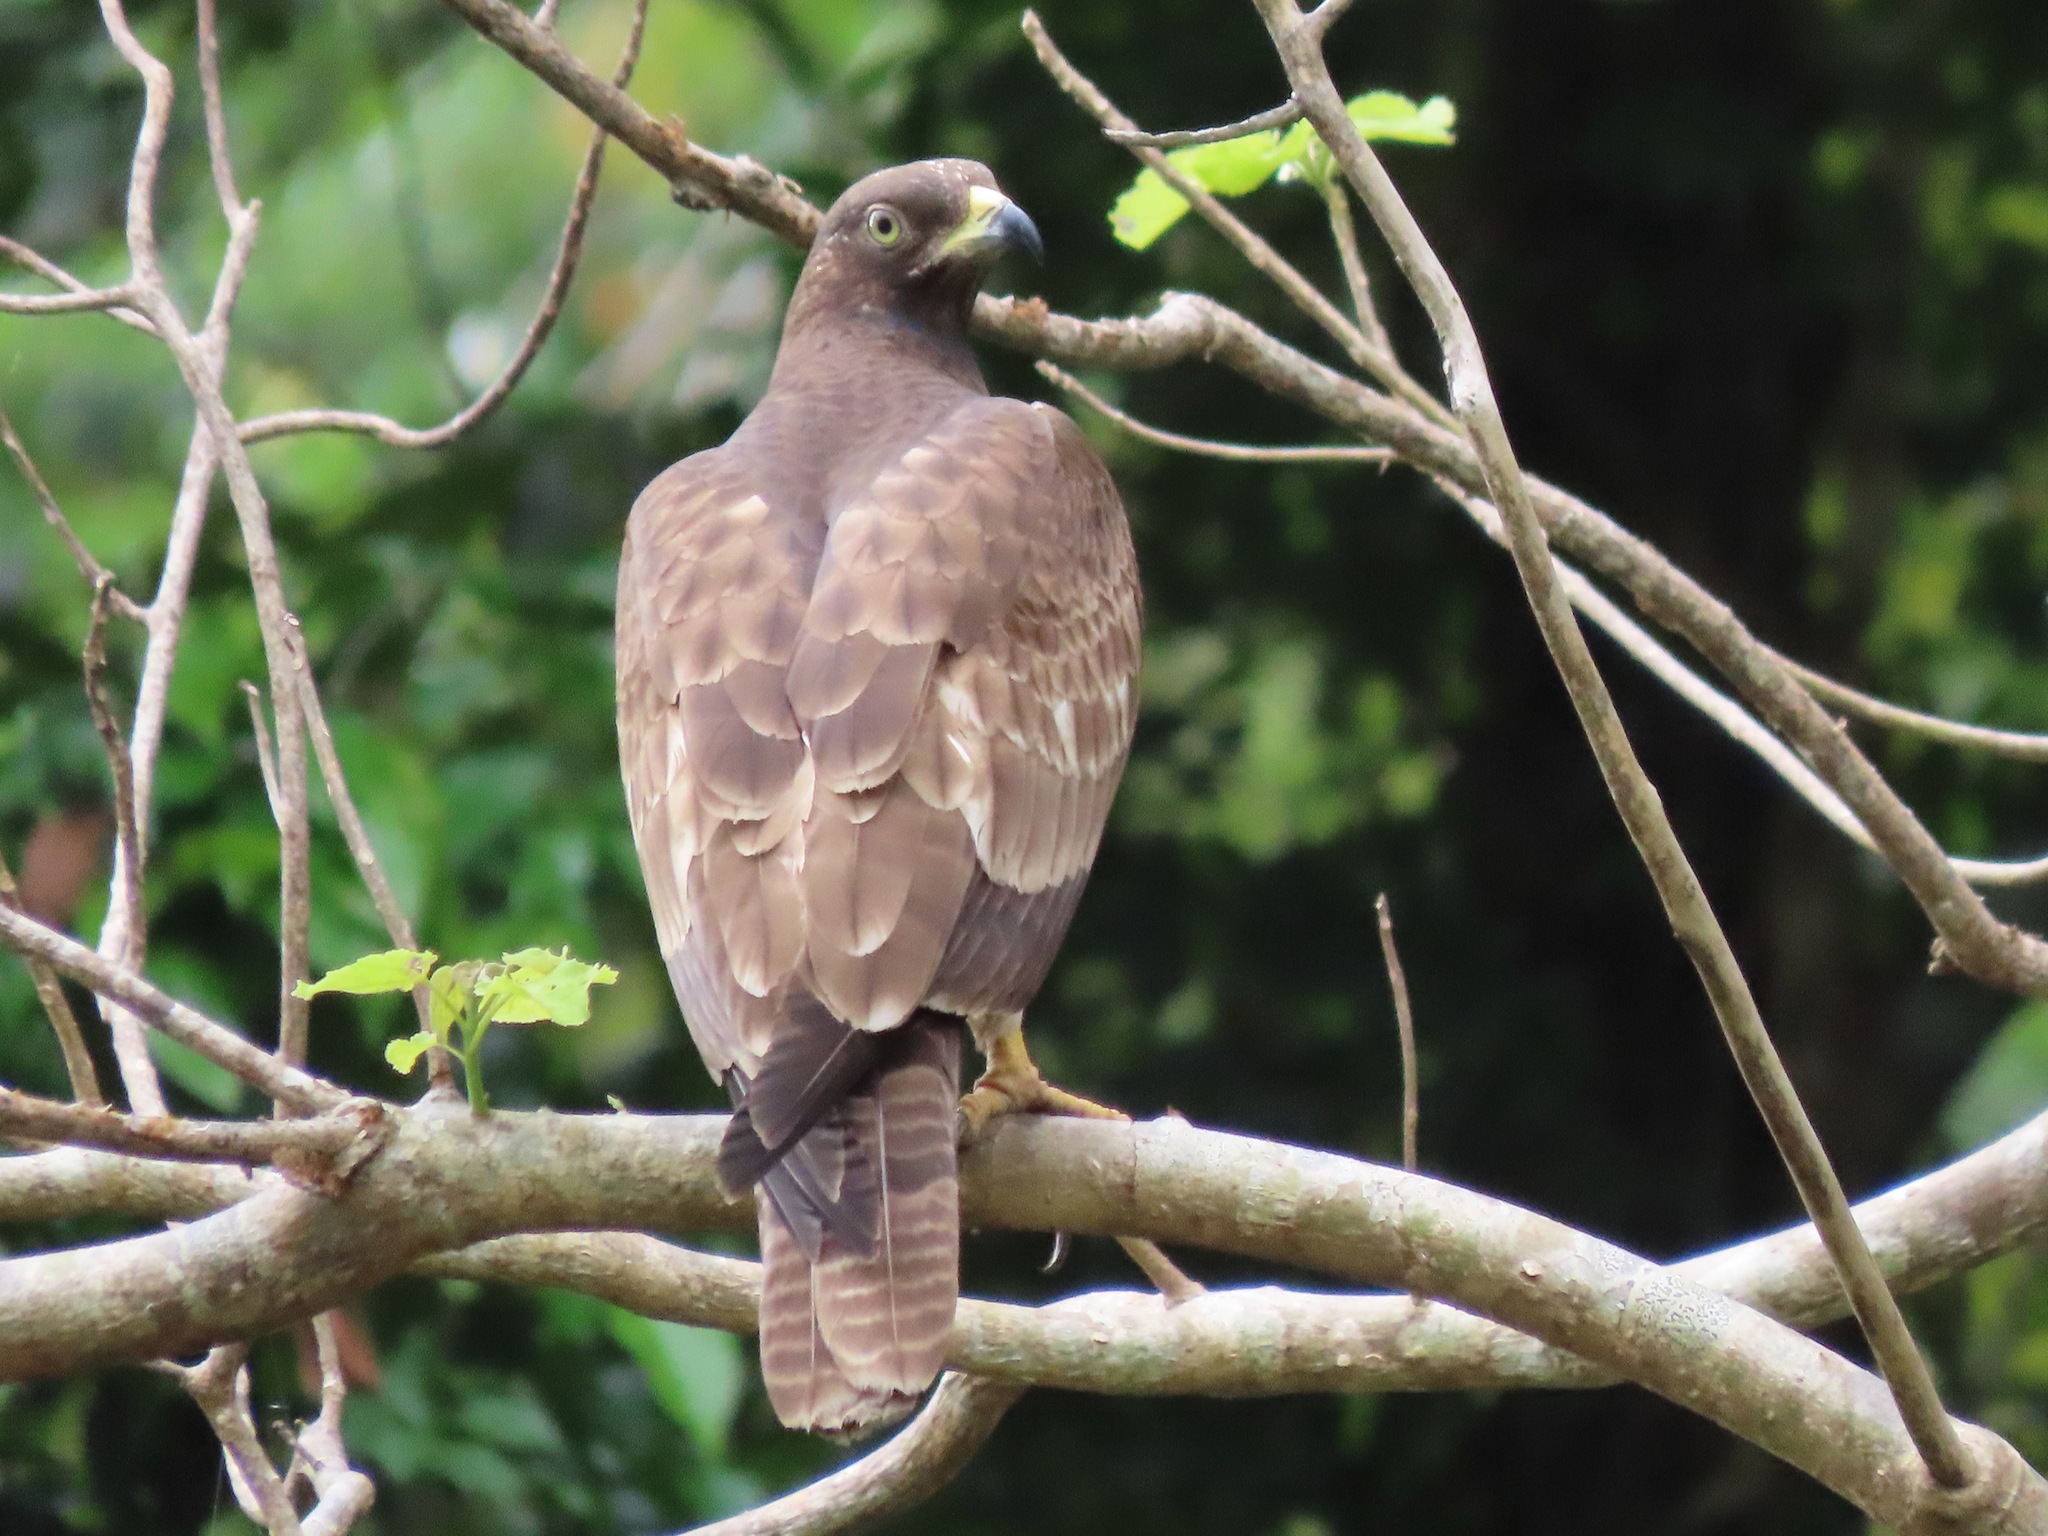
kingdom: Animalia
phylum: Chordata
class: Aves
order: Accipitriformes
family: Accipitridae
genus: Pernis
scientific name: Pernis ptilorhynchus
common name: Crested honey buzzard
